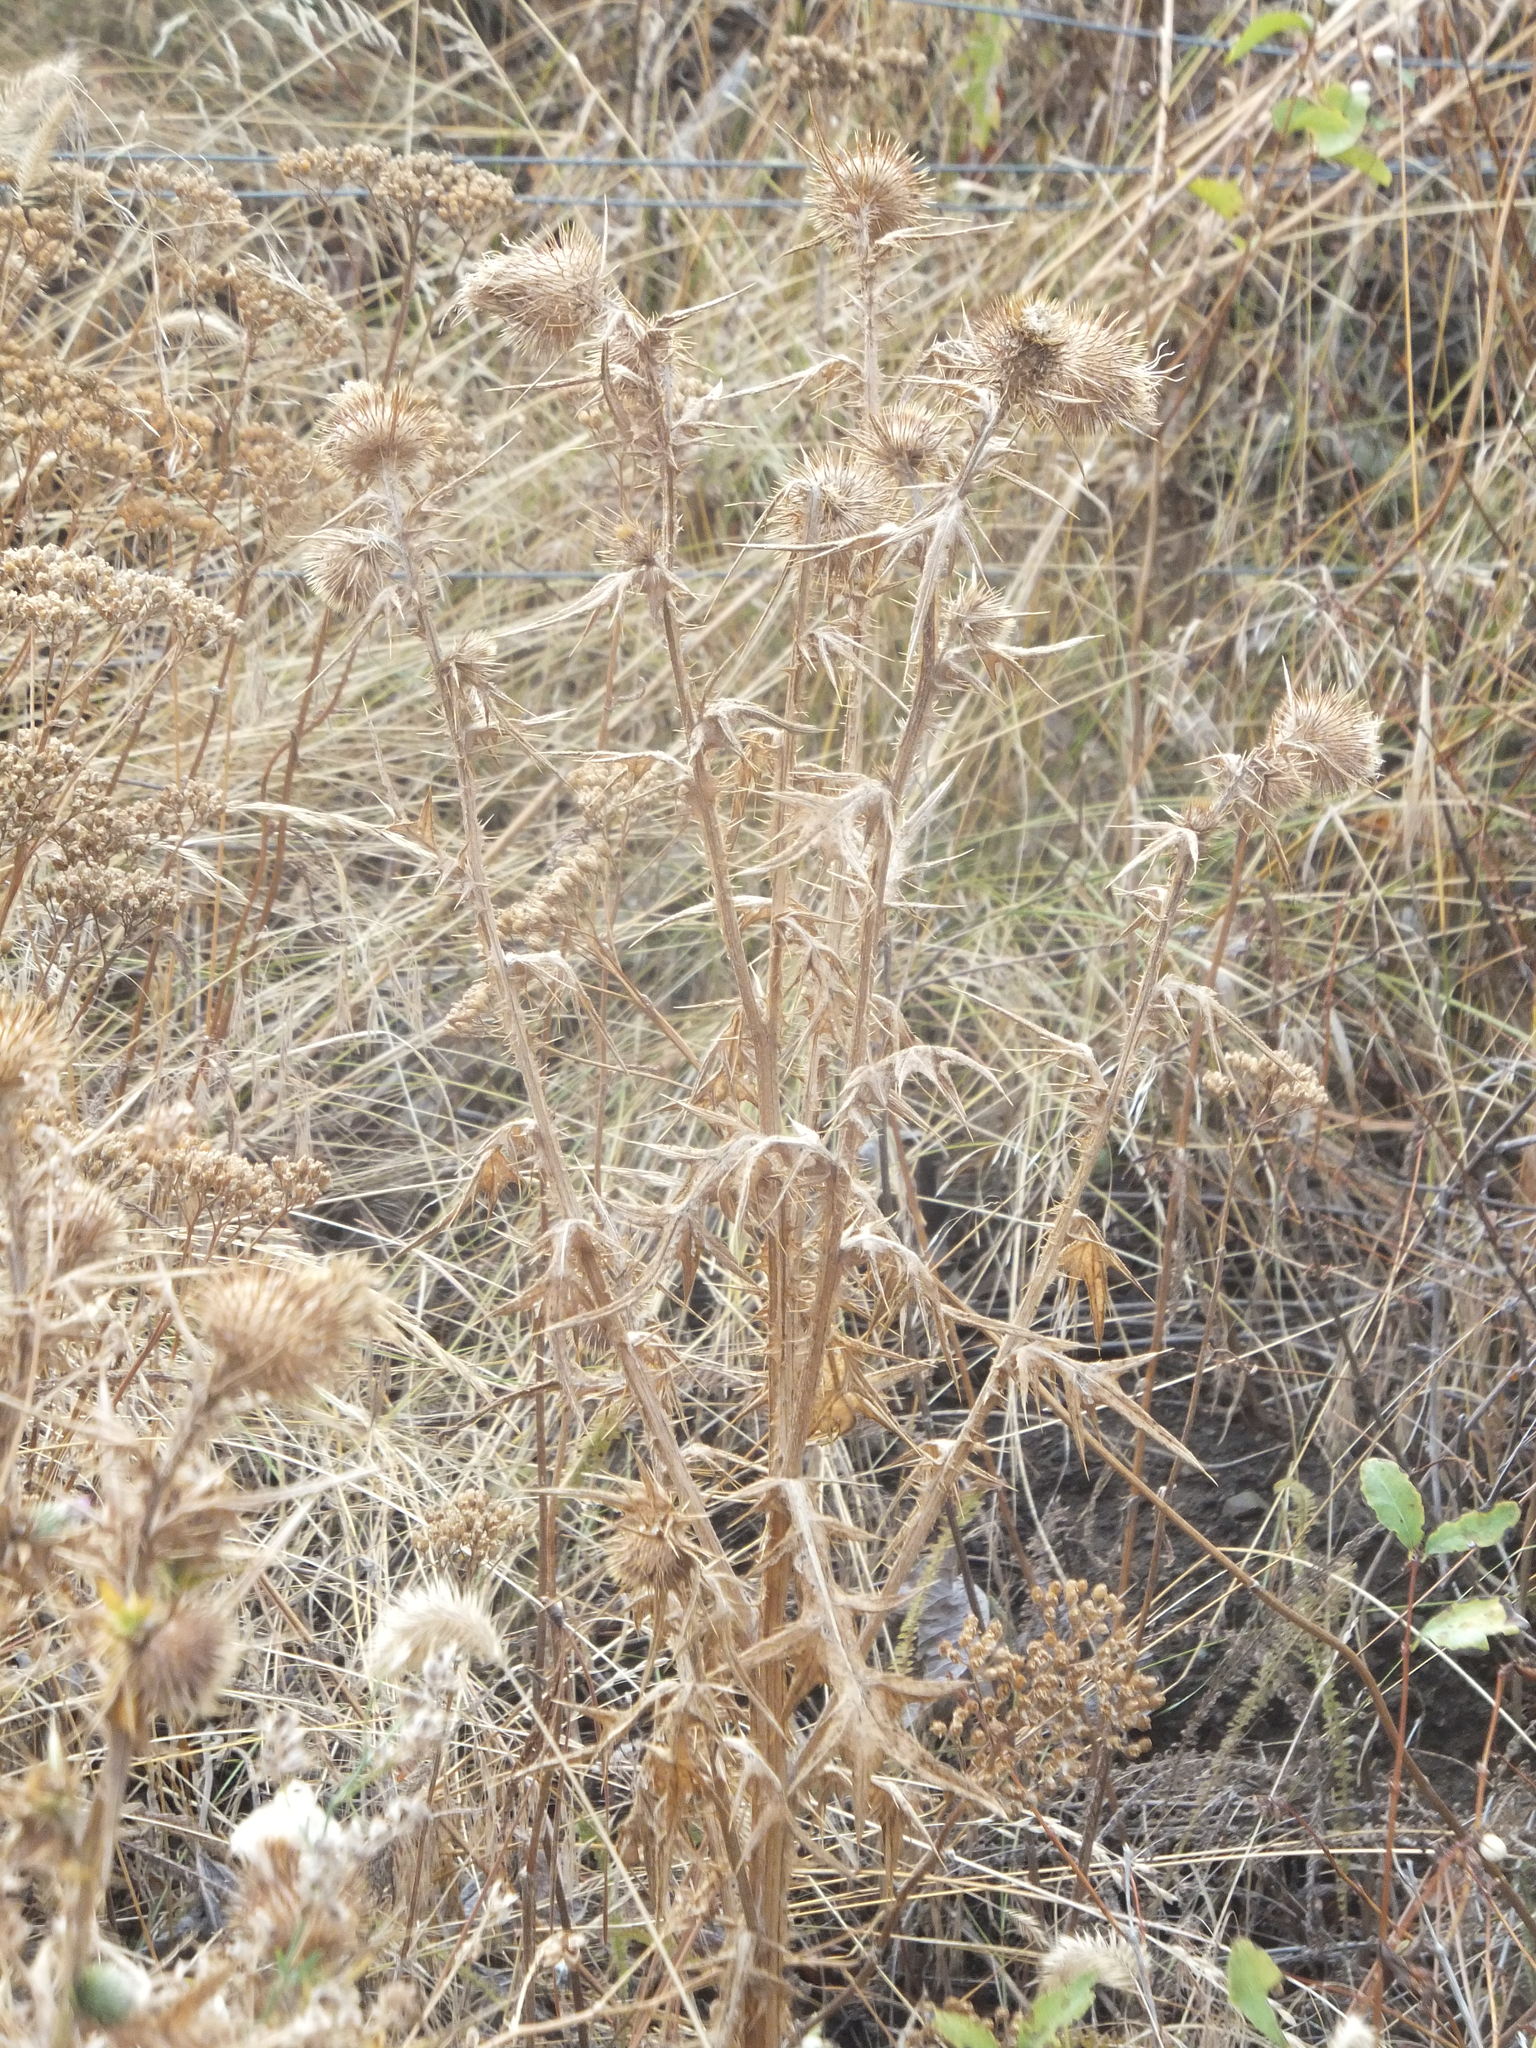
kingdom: Plantae
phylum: Tracheophyta
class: Magnoliopsida
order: Asterales
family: Asteraceae
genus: Cirsium
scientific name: Cirsium vulgare
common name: Bull thistle
